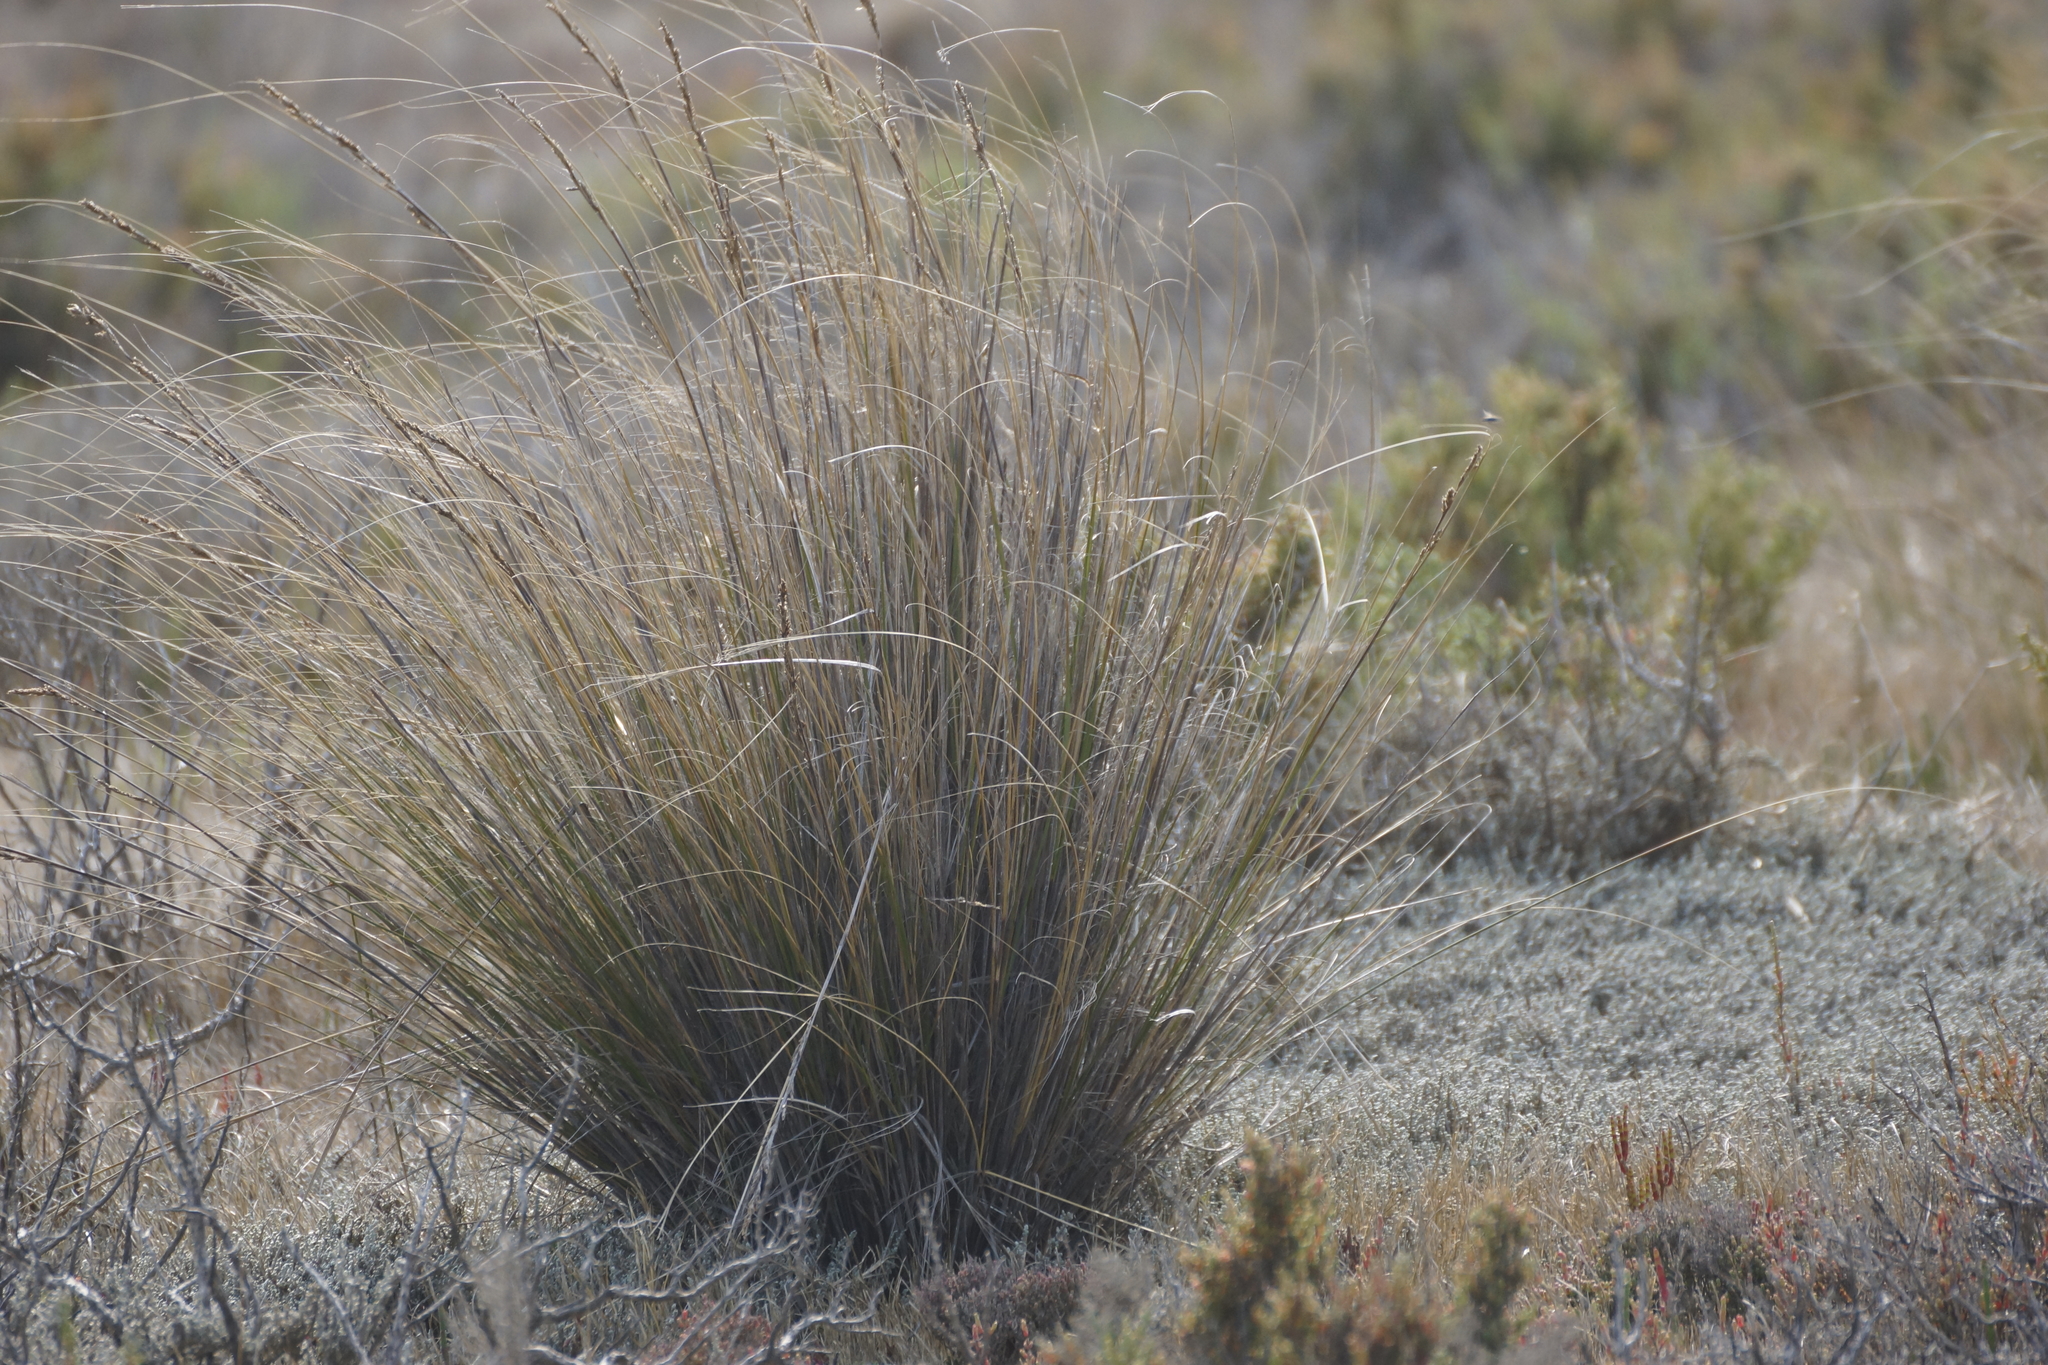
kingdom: Plantae
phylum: Tracheophyta
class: Liliopsida
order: Poales
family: Cyperaceae
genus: Gahnia
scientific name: Gahnia filum
